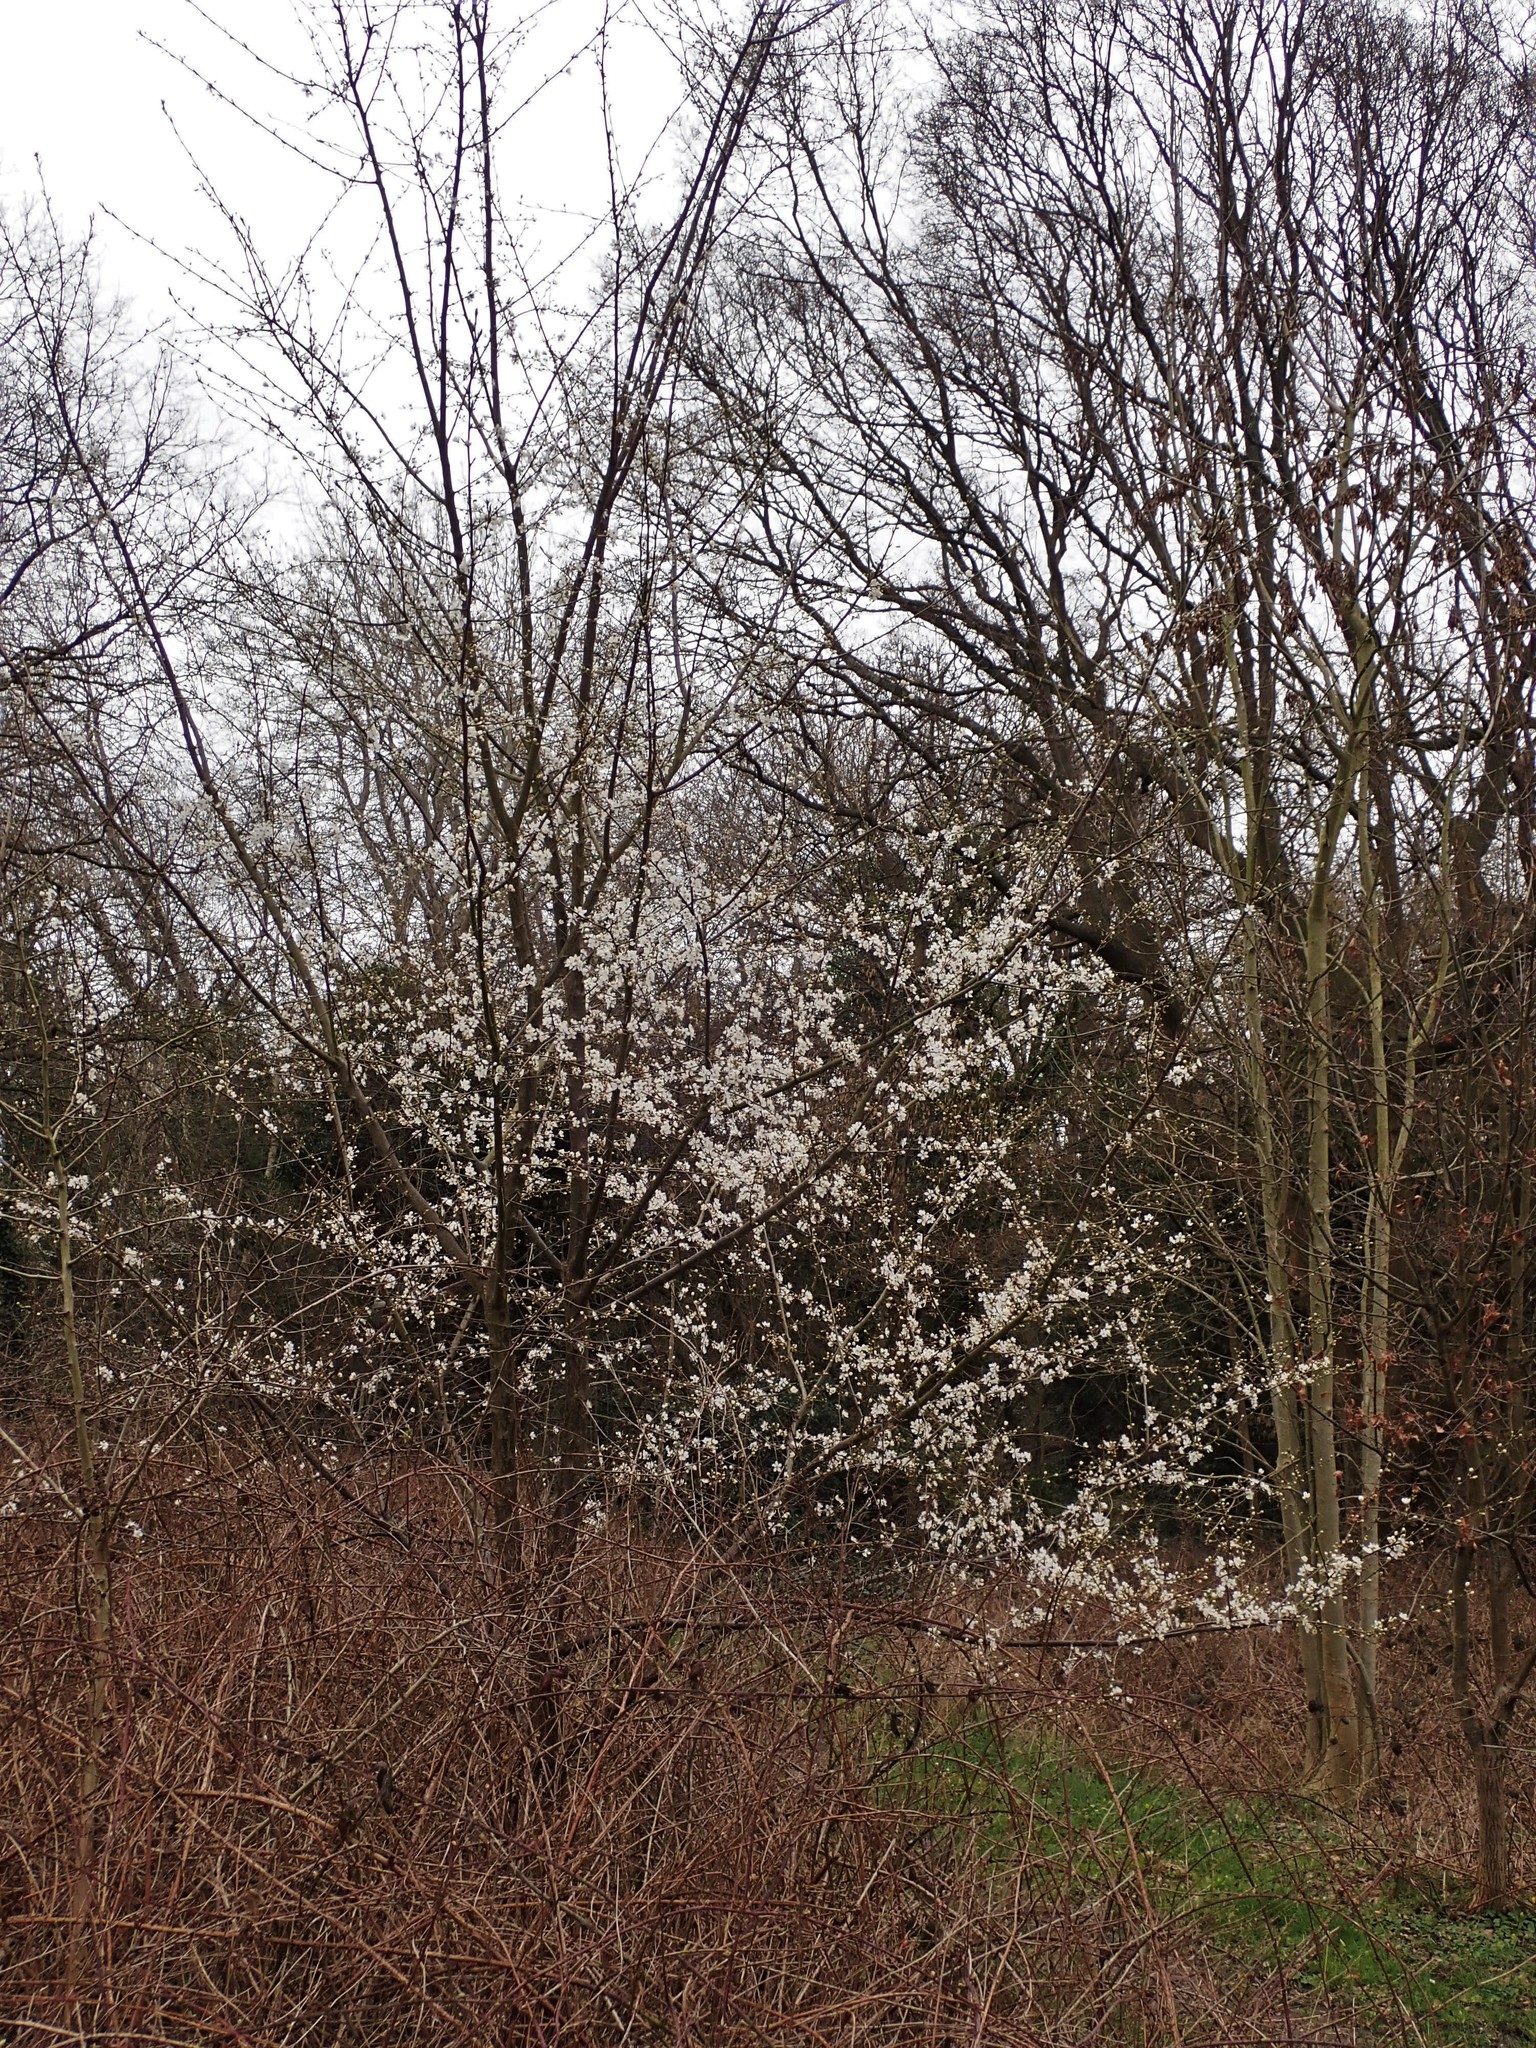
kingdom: Plantae
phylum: Tracheophyta
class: Magnoliopsida
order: Rosales
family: Rosaceae
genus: Prunus
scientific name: Prunus cerasifera
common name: Cherry plum
